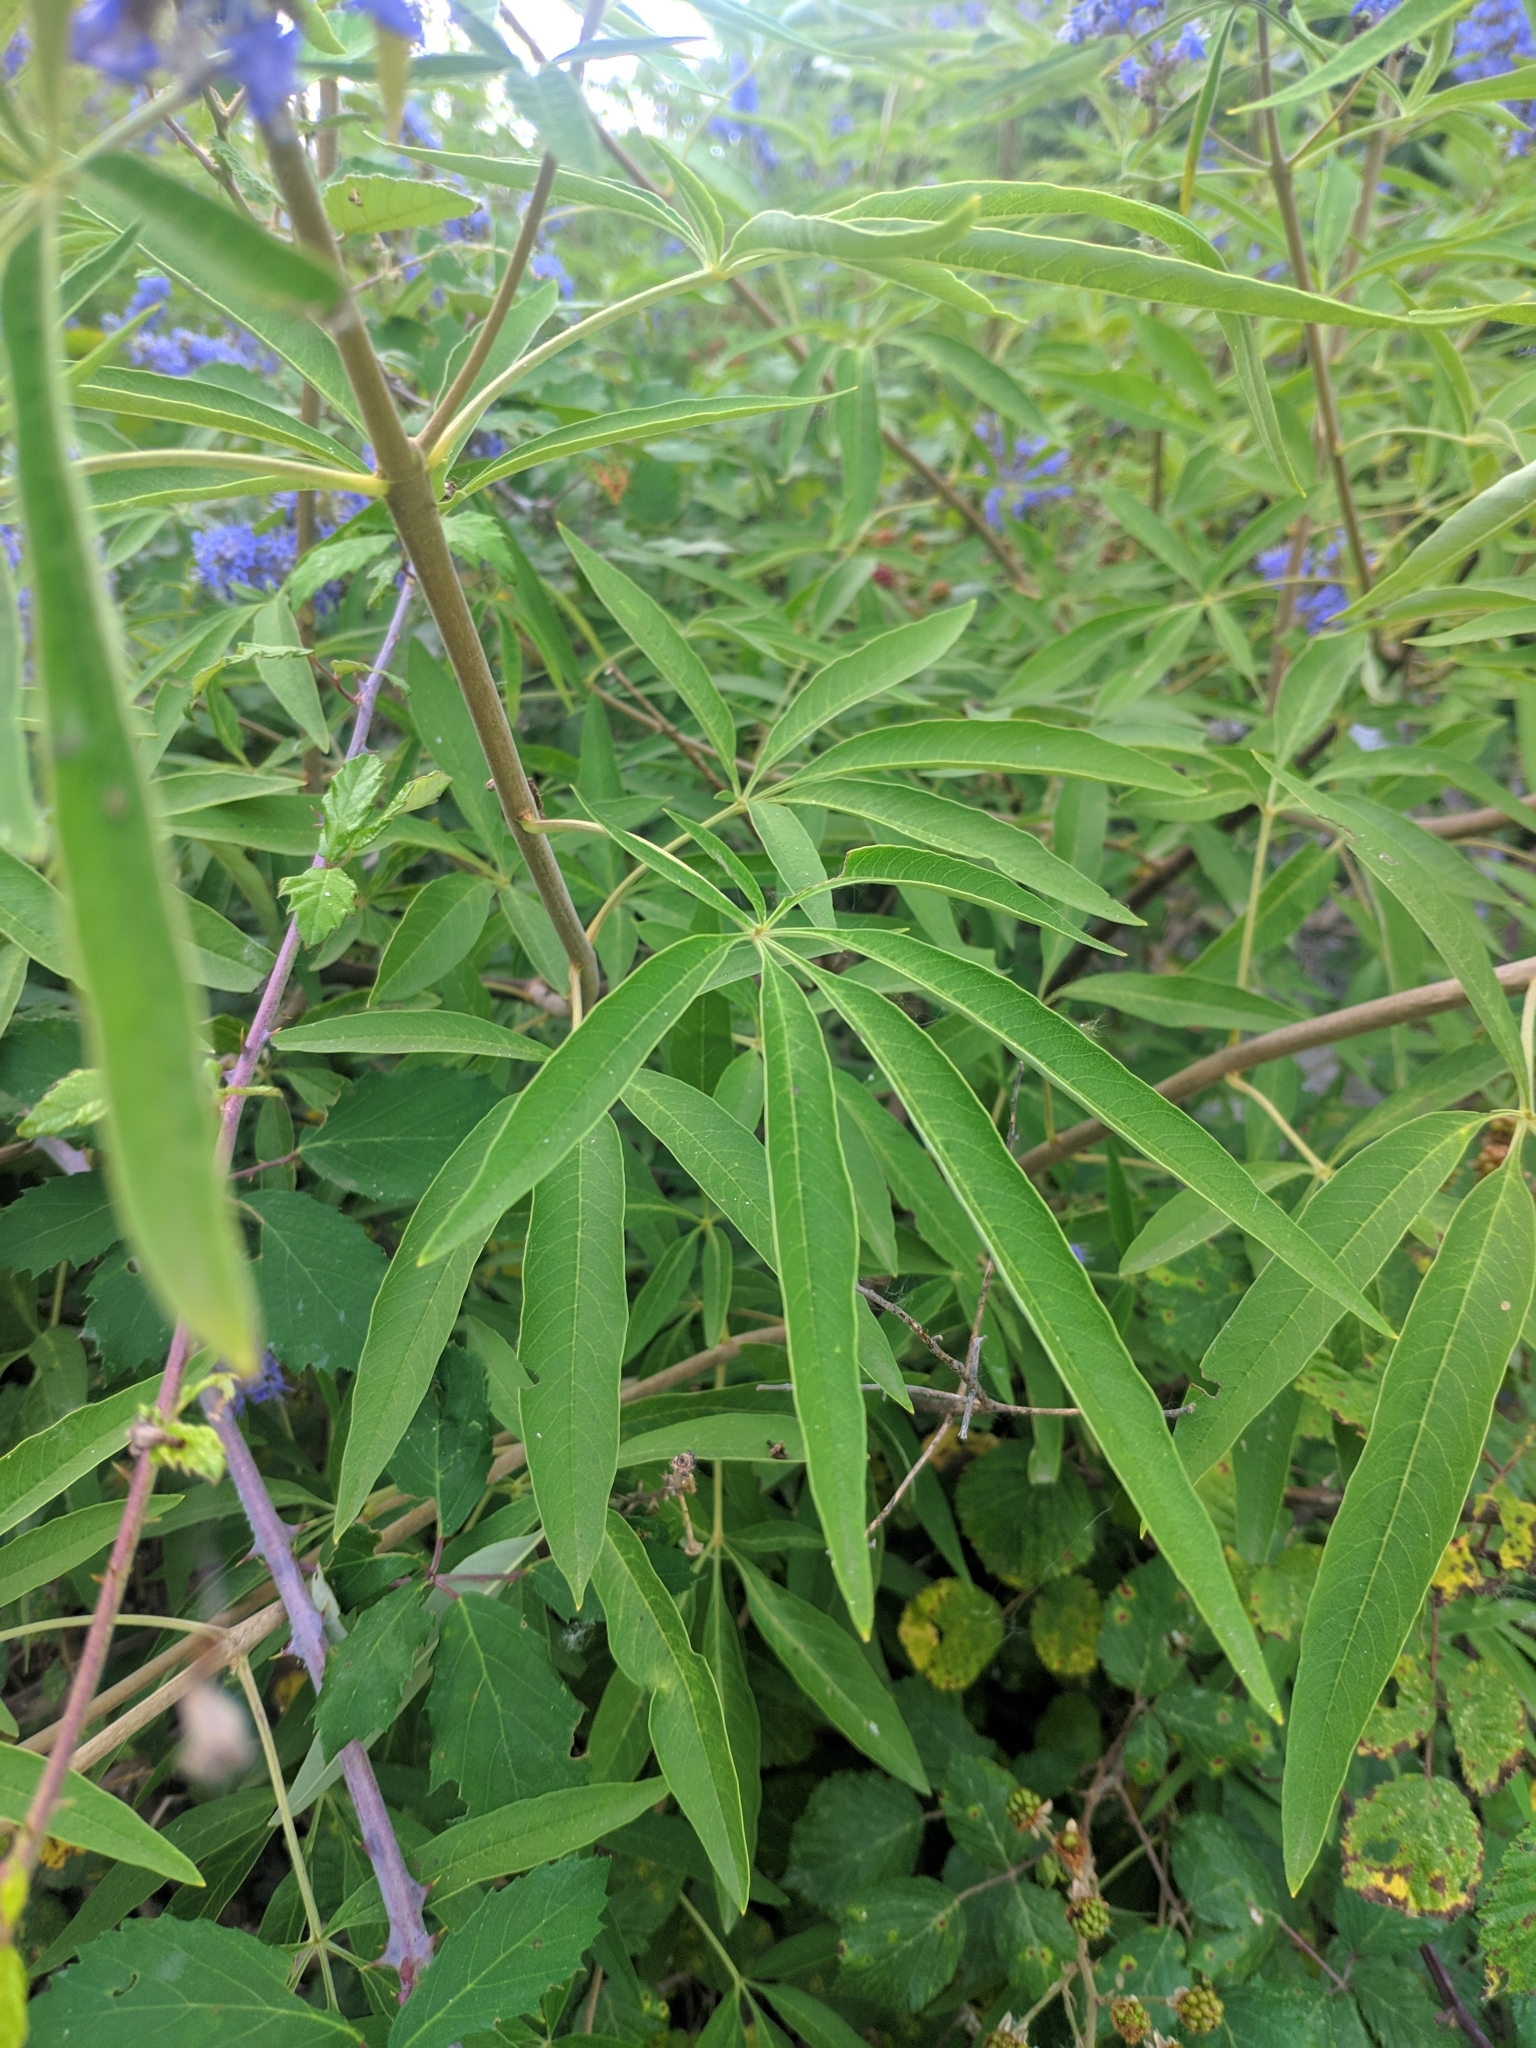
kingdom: Plantae
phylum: Tracheophyta
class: Magnoliopsida
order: Lamiales
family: Lamiaceae
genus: Vitex
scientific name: Vitex agnus-castus
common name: Chasteberry
